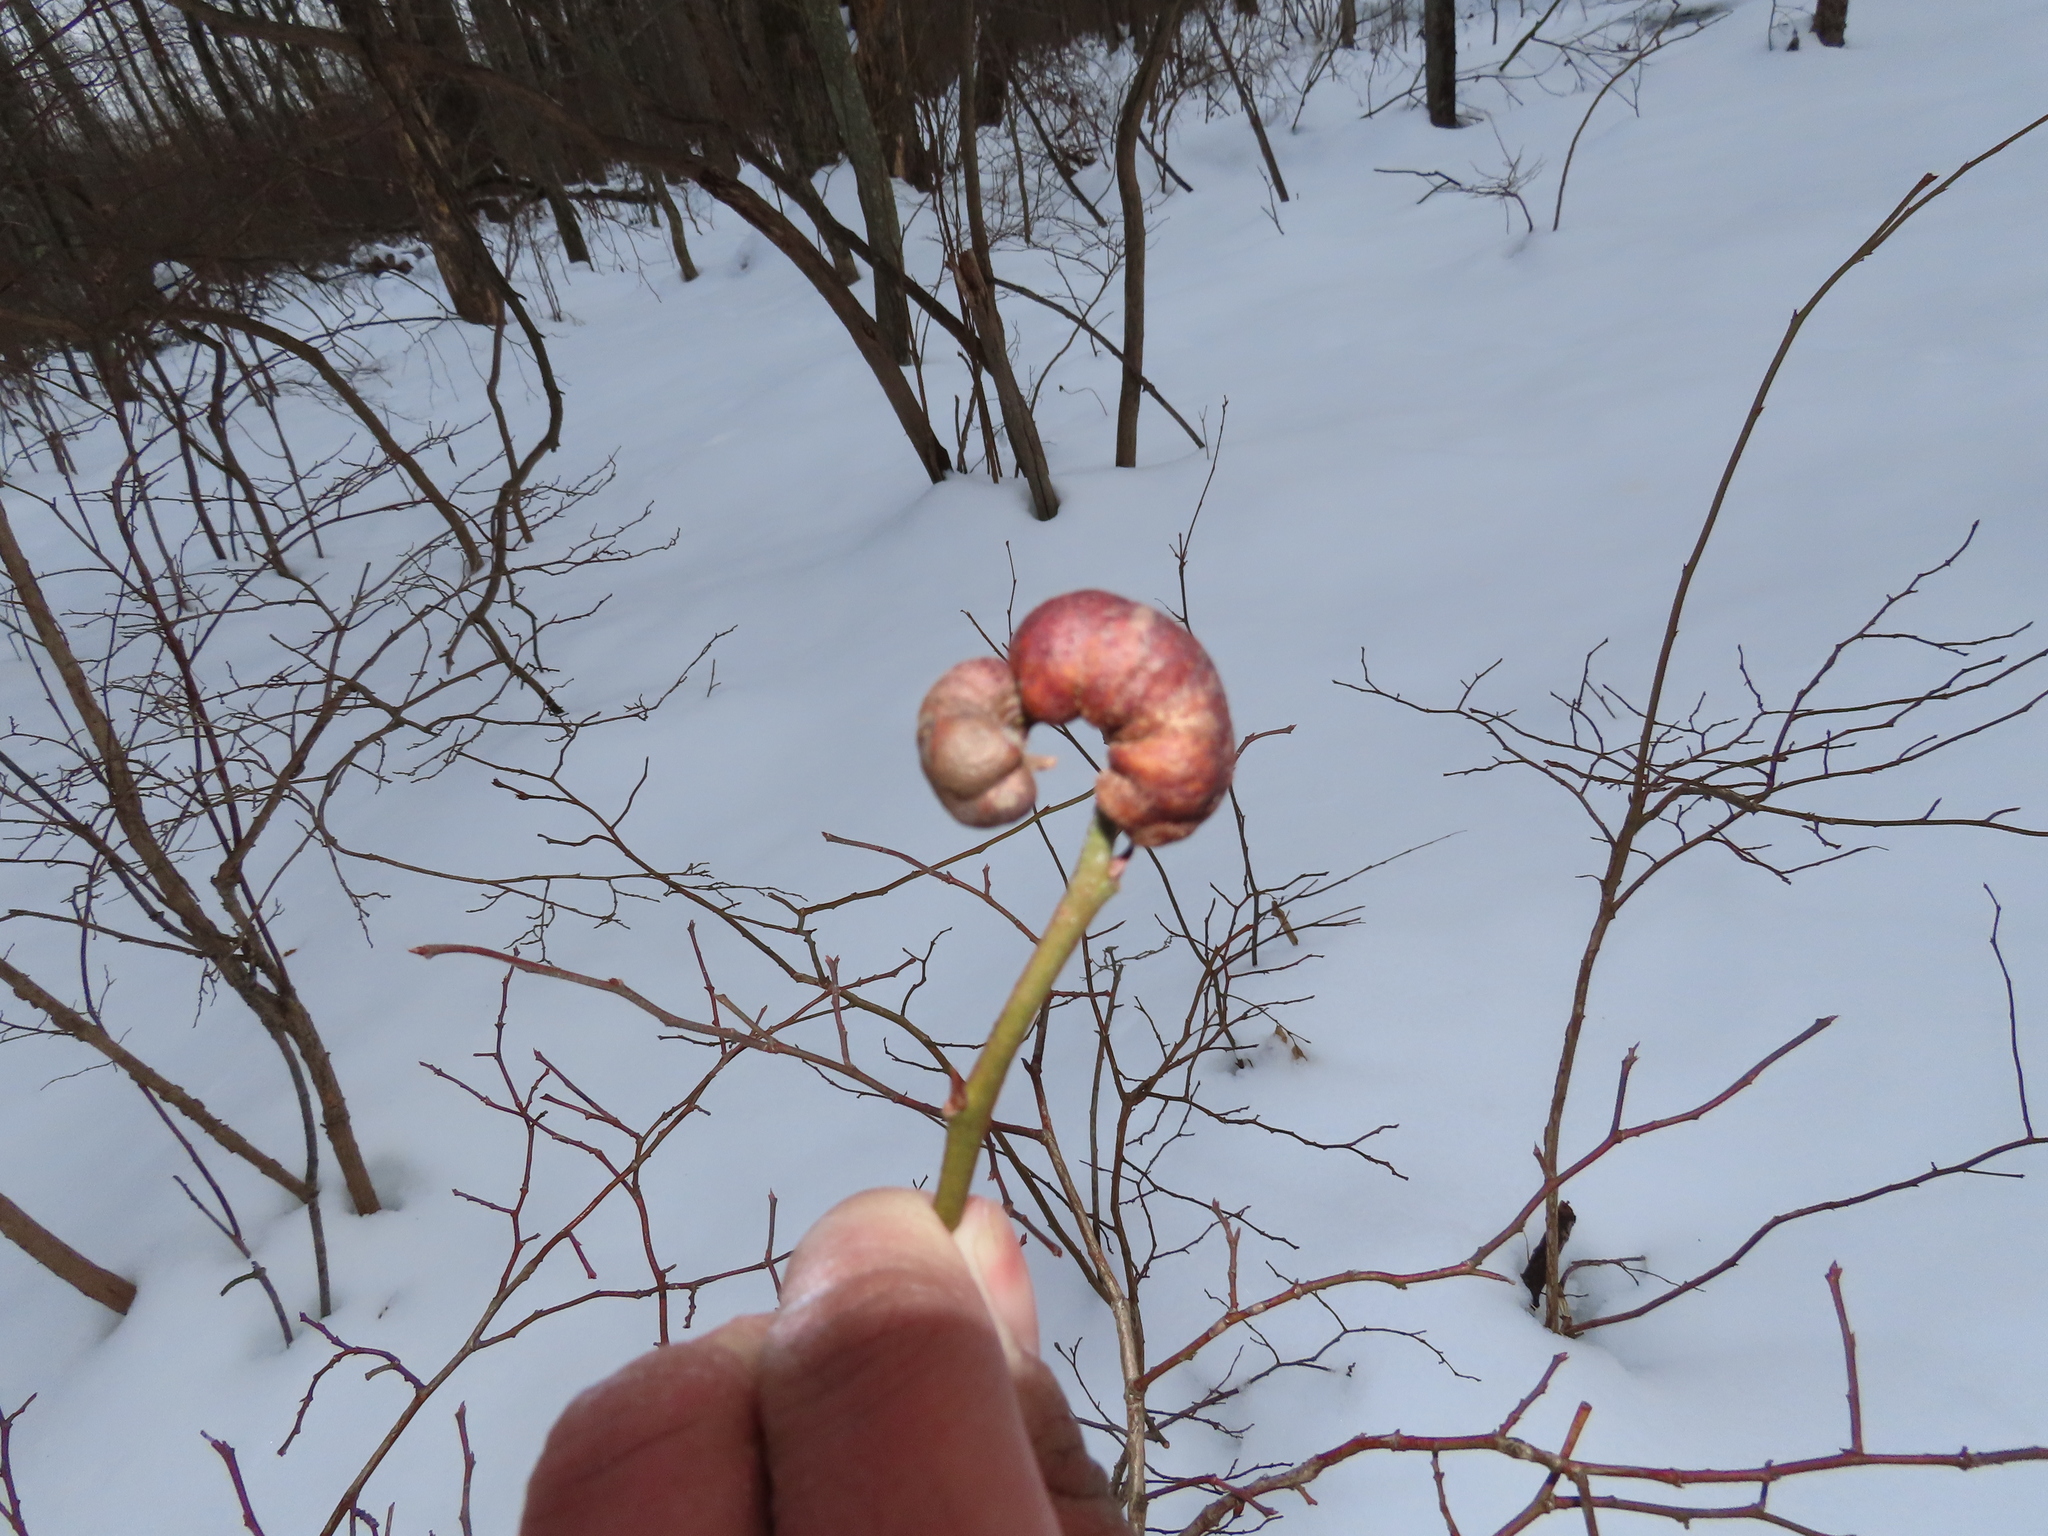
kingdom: Animalia
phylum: Arthropoda
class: Insecta
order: Hymenoptera
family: Pteromalidae
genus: Hemadas
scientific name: Hemadas nubilipennis
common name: Blueberry stem gall wasp
